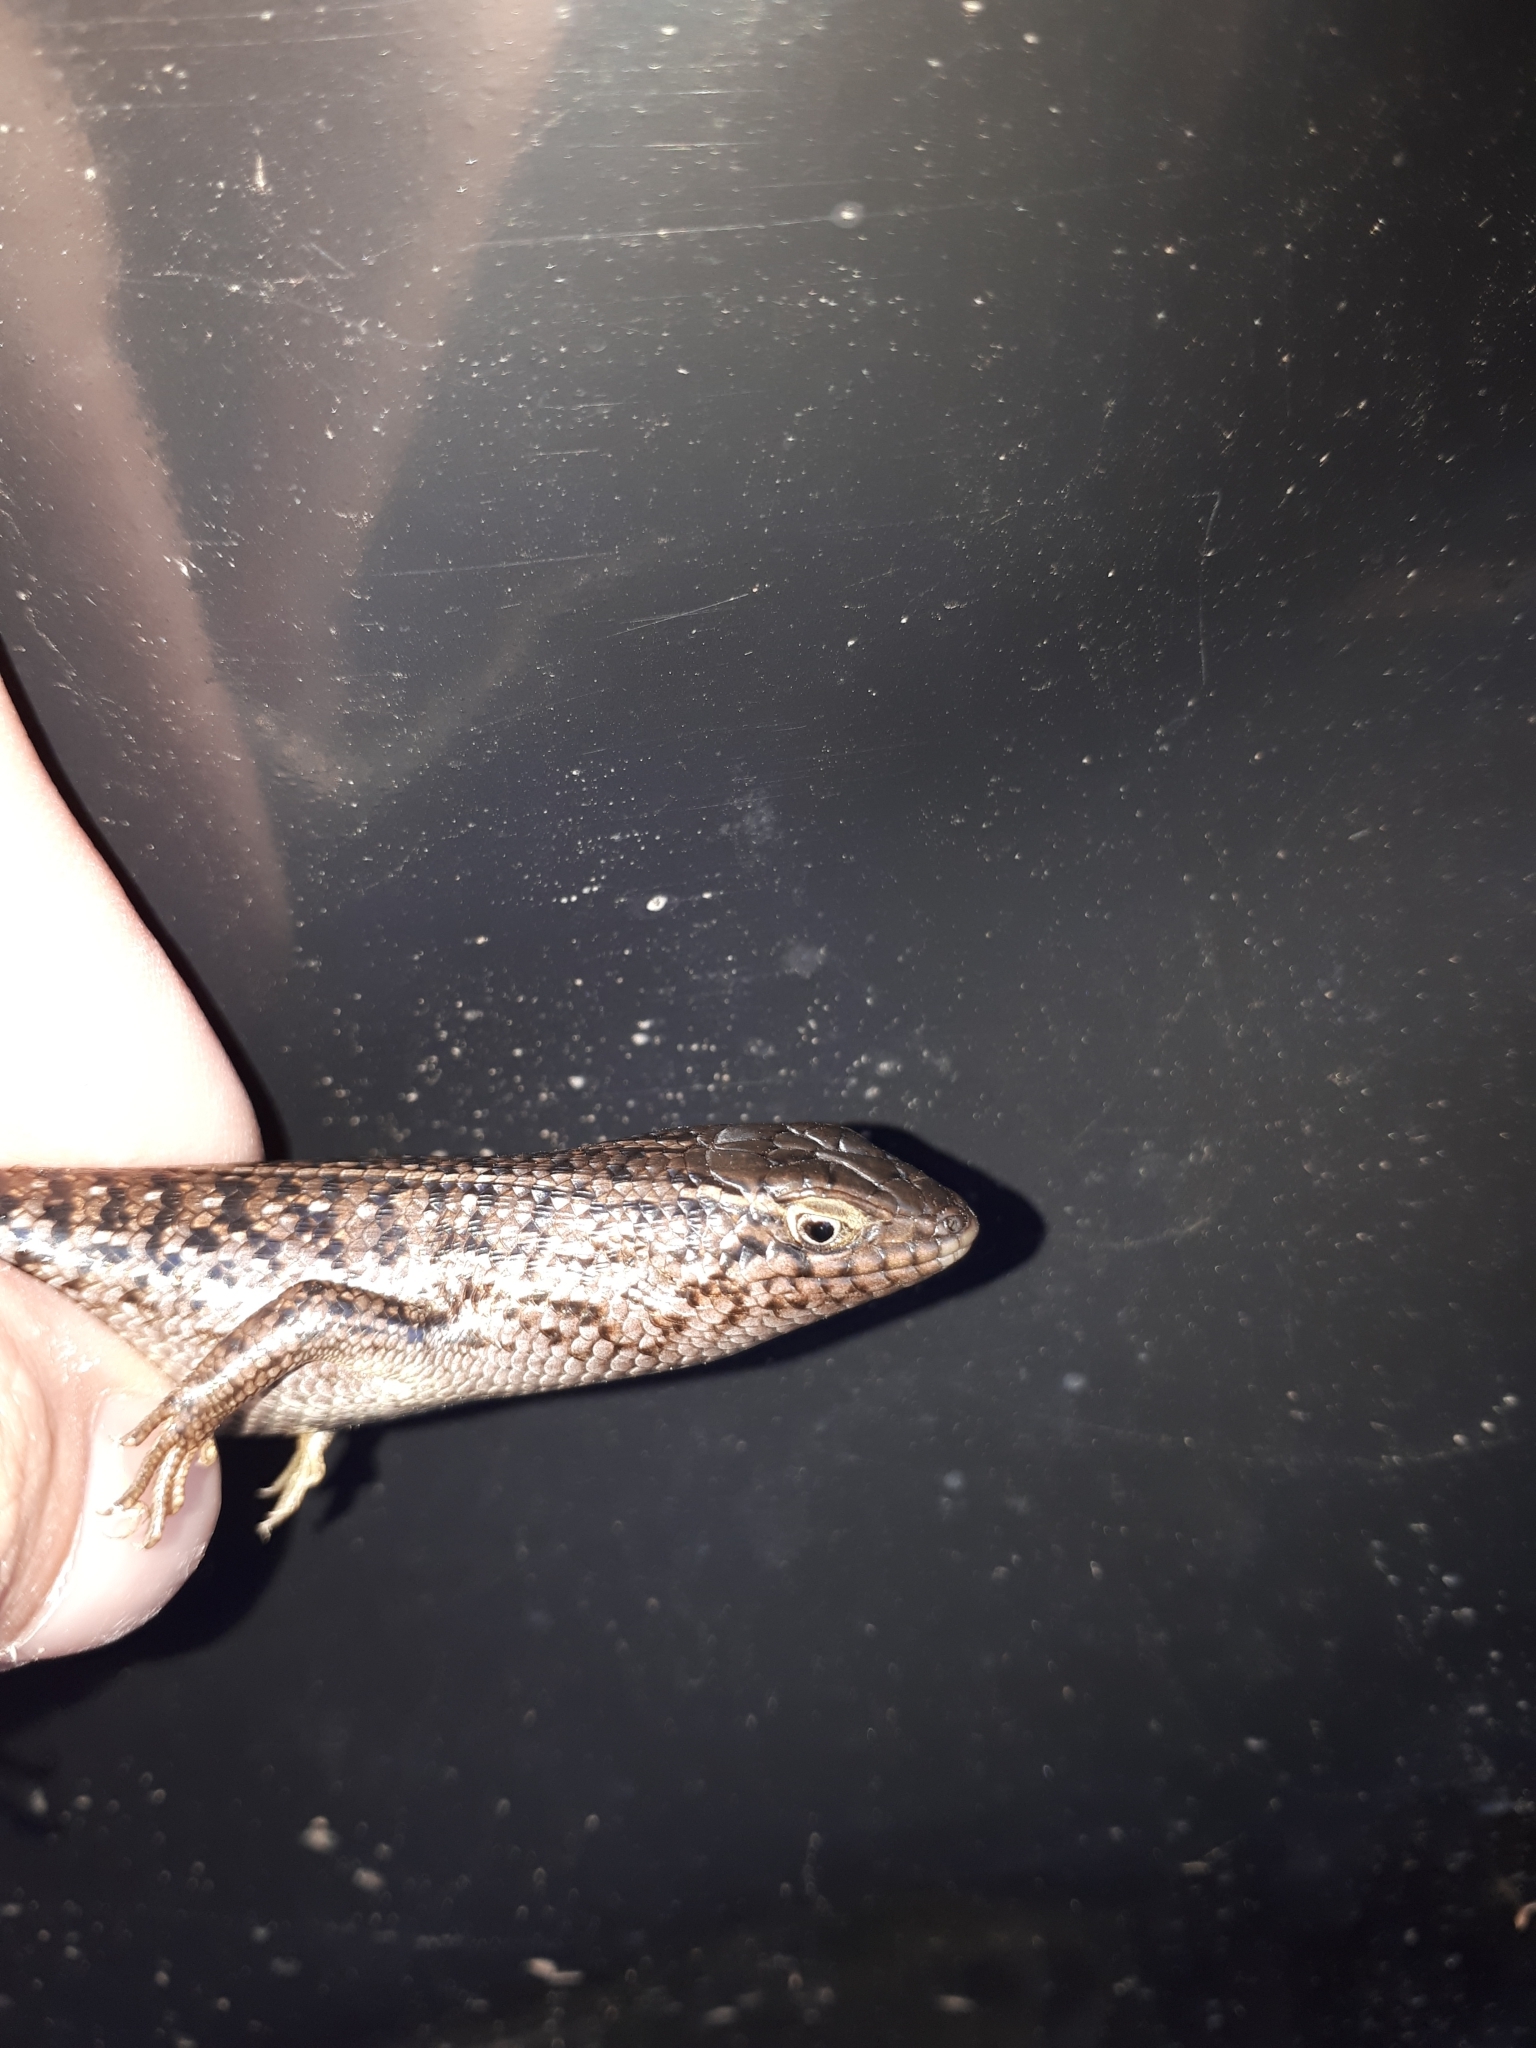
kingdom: Animalia
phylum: Chordata
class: Squamata
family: Scincidae
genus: Trachylepis
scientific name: Trachylepis capensis
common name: Cape skink
